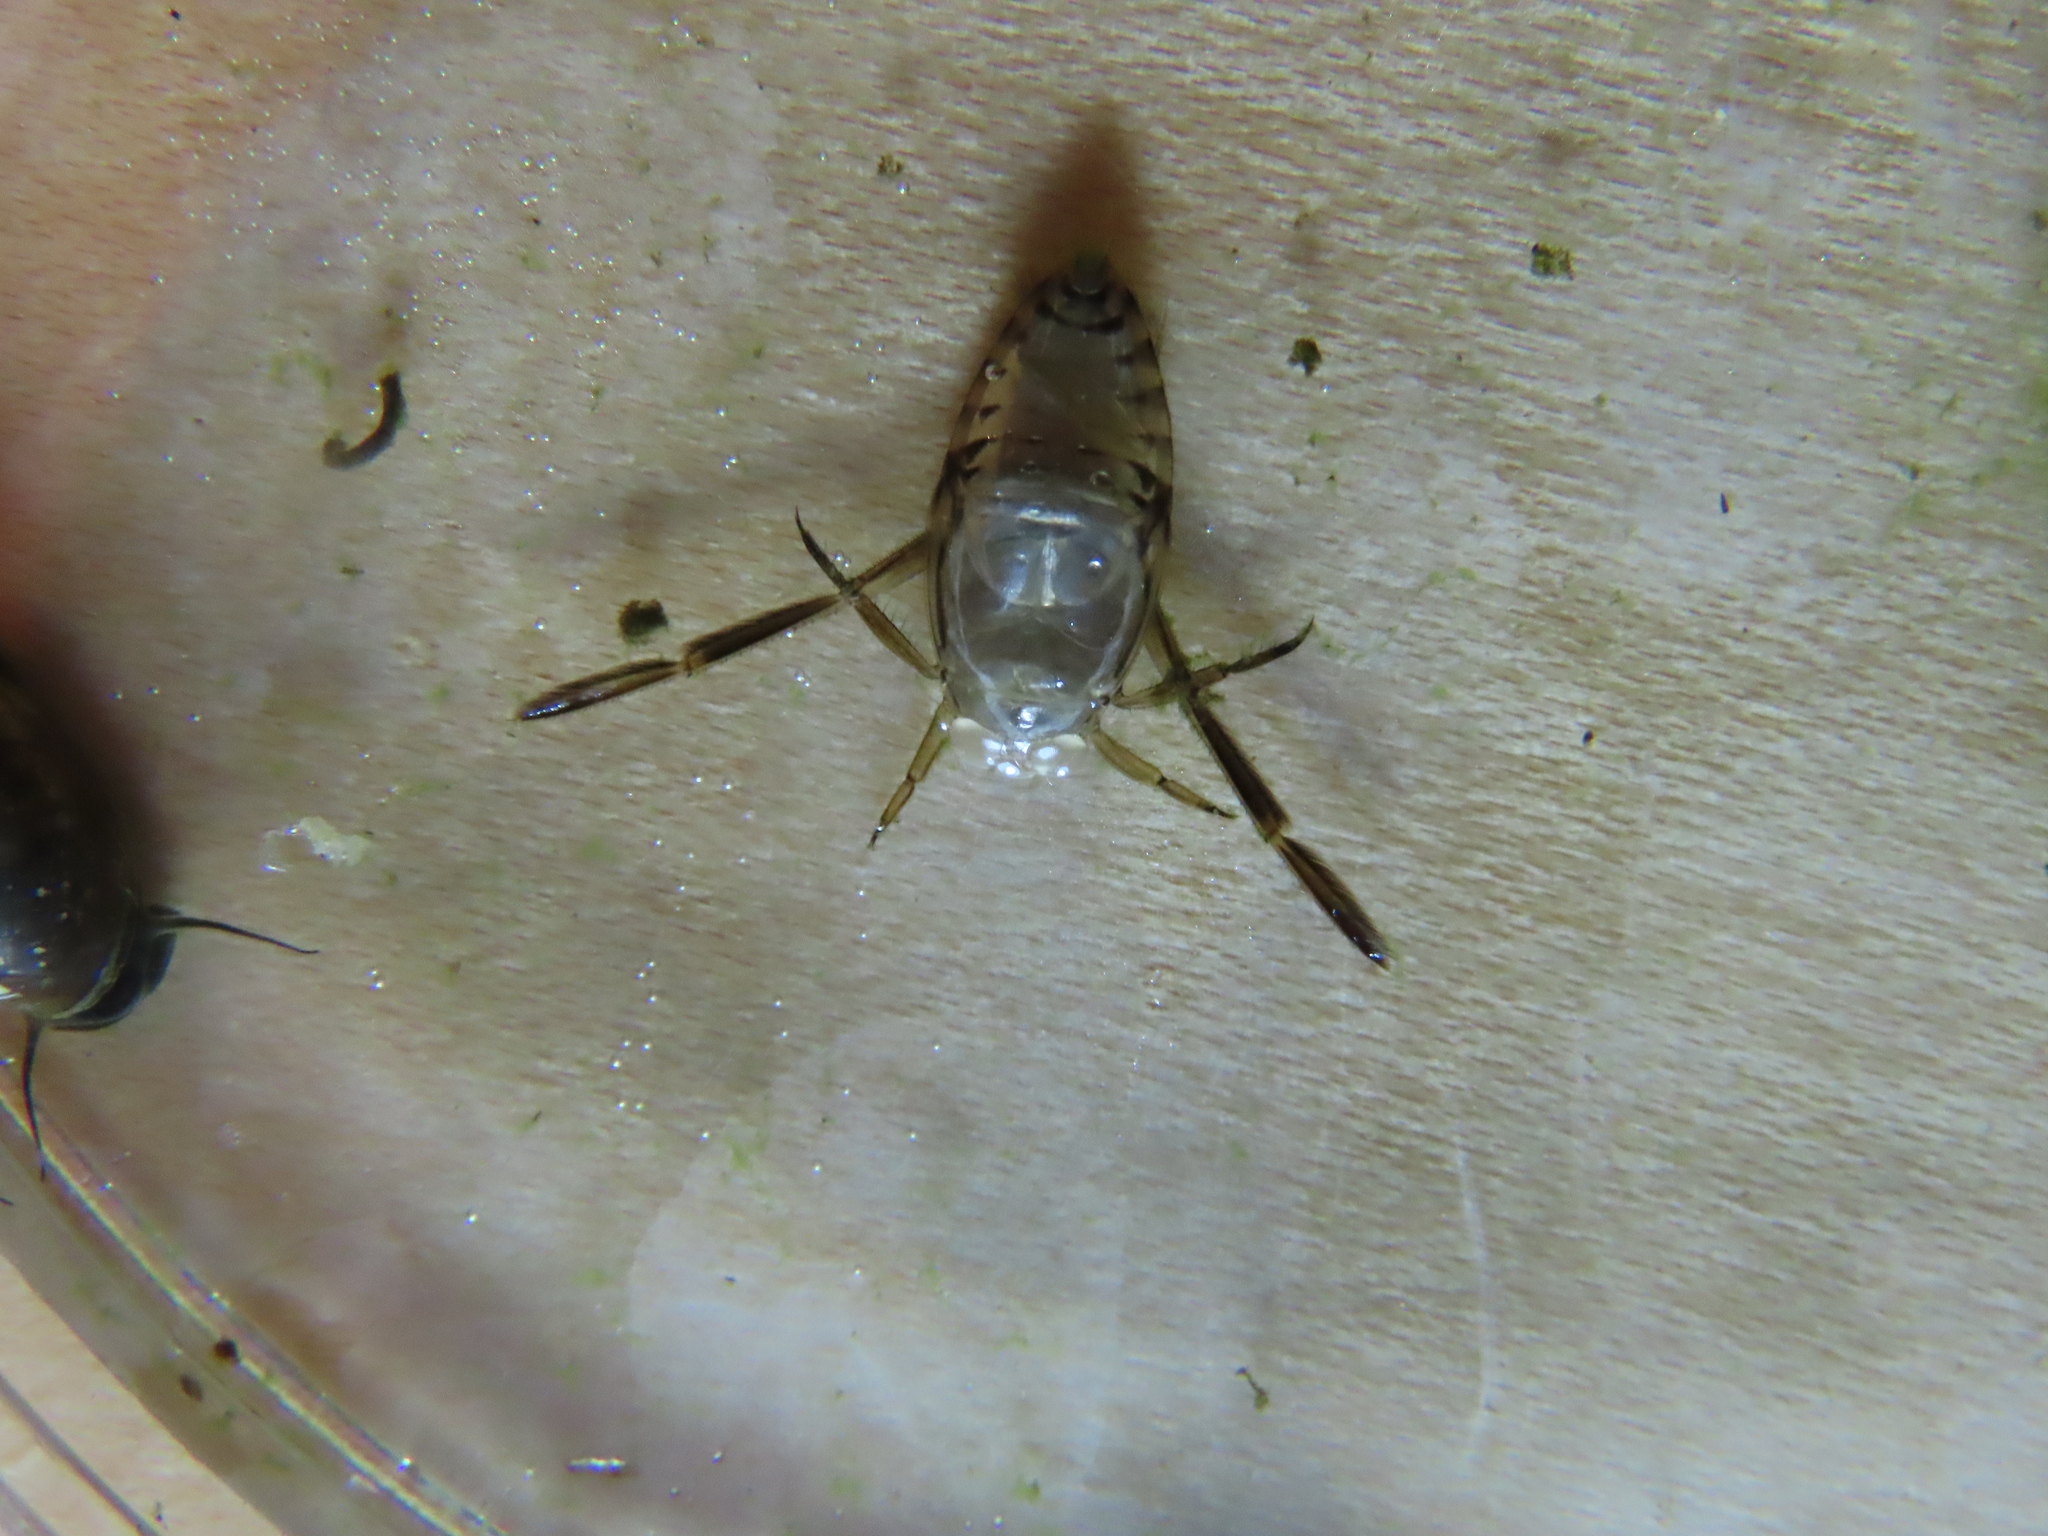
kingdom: Animalia
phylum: Arthropoda
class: Insecta
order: Hemiptera
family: Notonectidae
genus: Notonecta
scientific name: Notonecta
